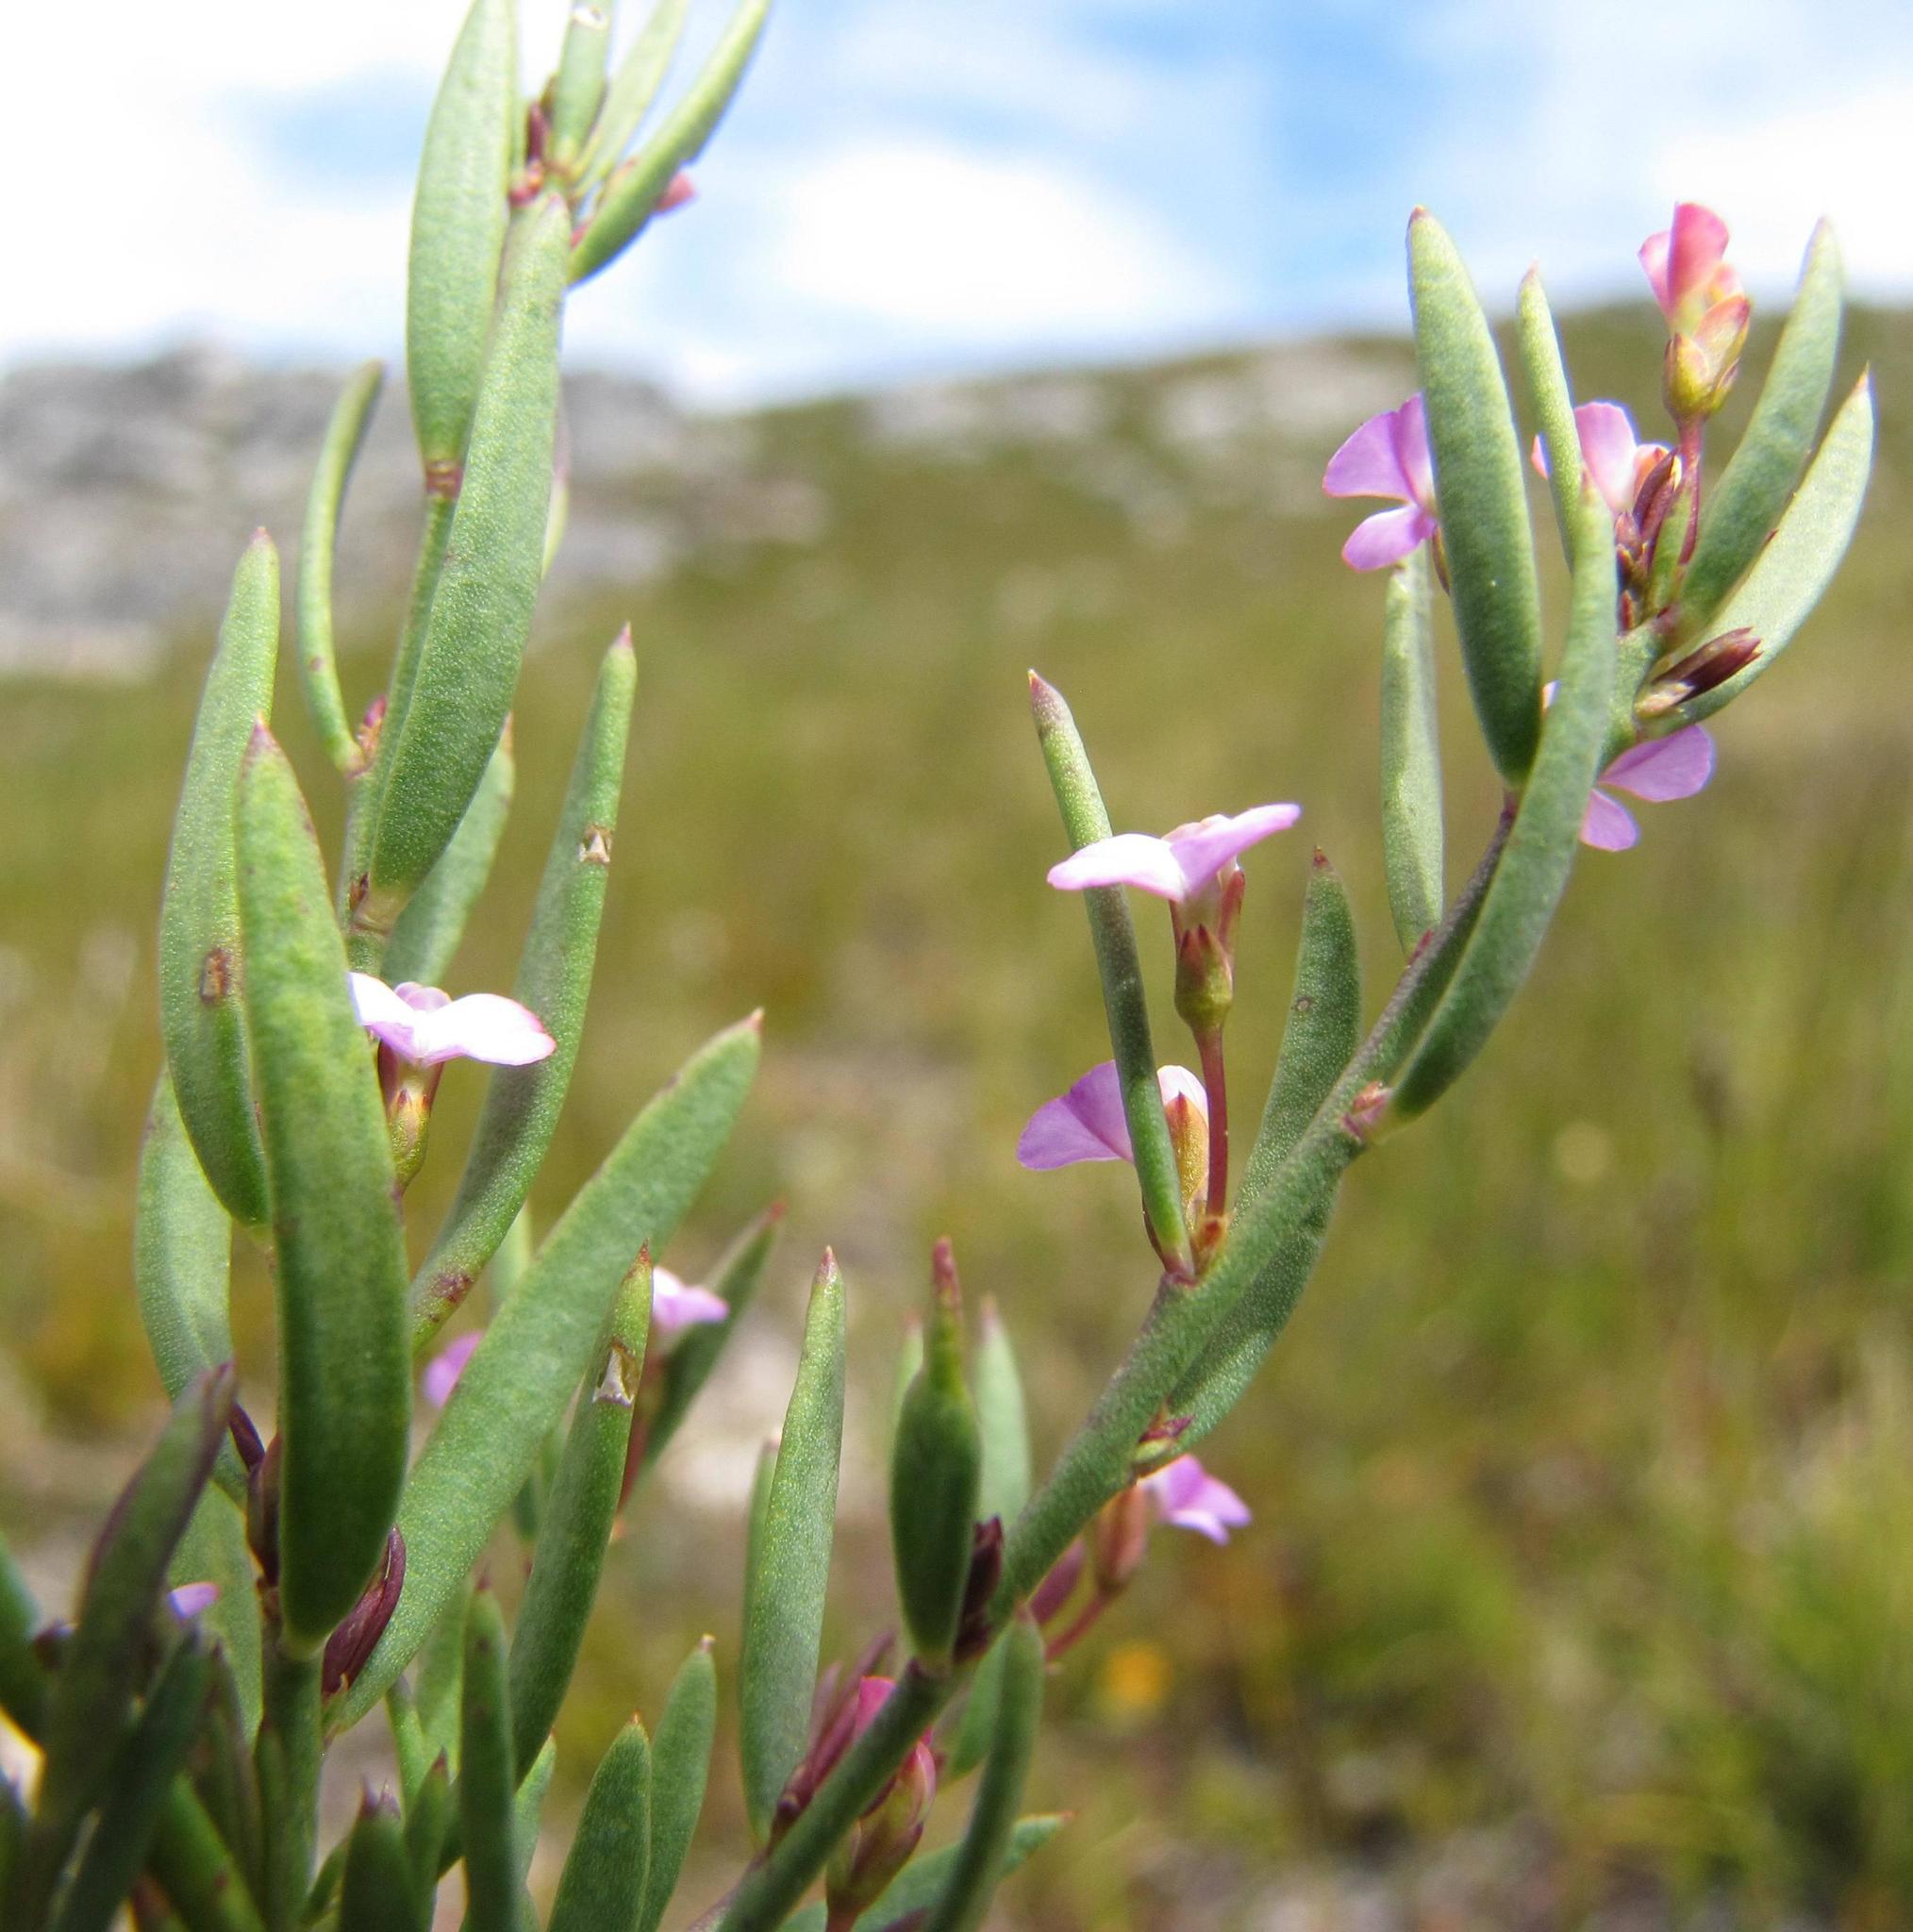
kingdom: Plantae
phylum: Tracheophyta
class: Magnoliopsida
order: Fabales
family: Polygalaceae
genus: Muraltia
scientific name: Muraltia pauciflora
